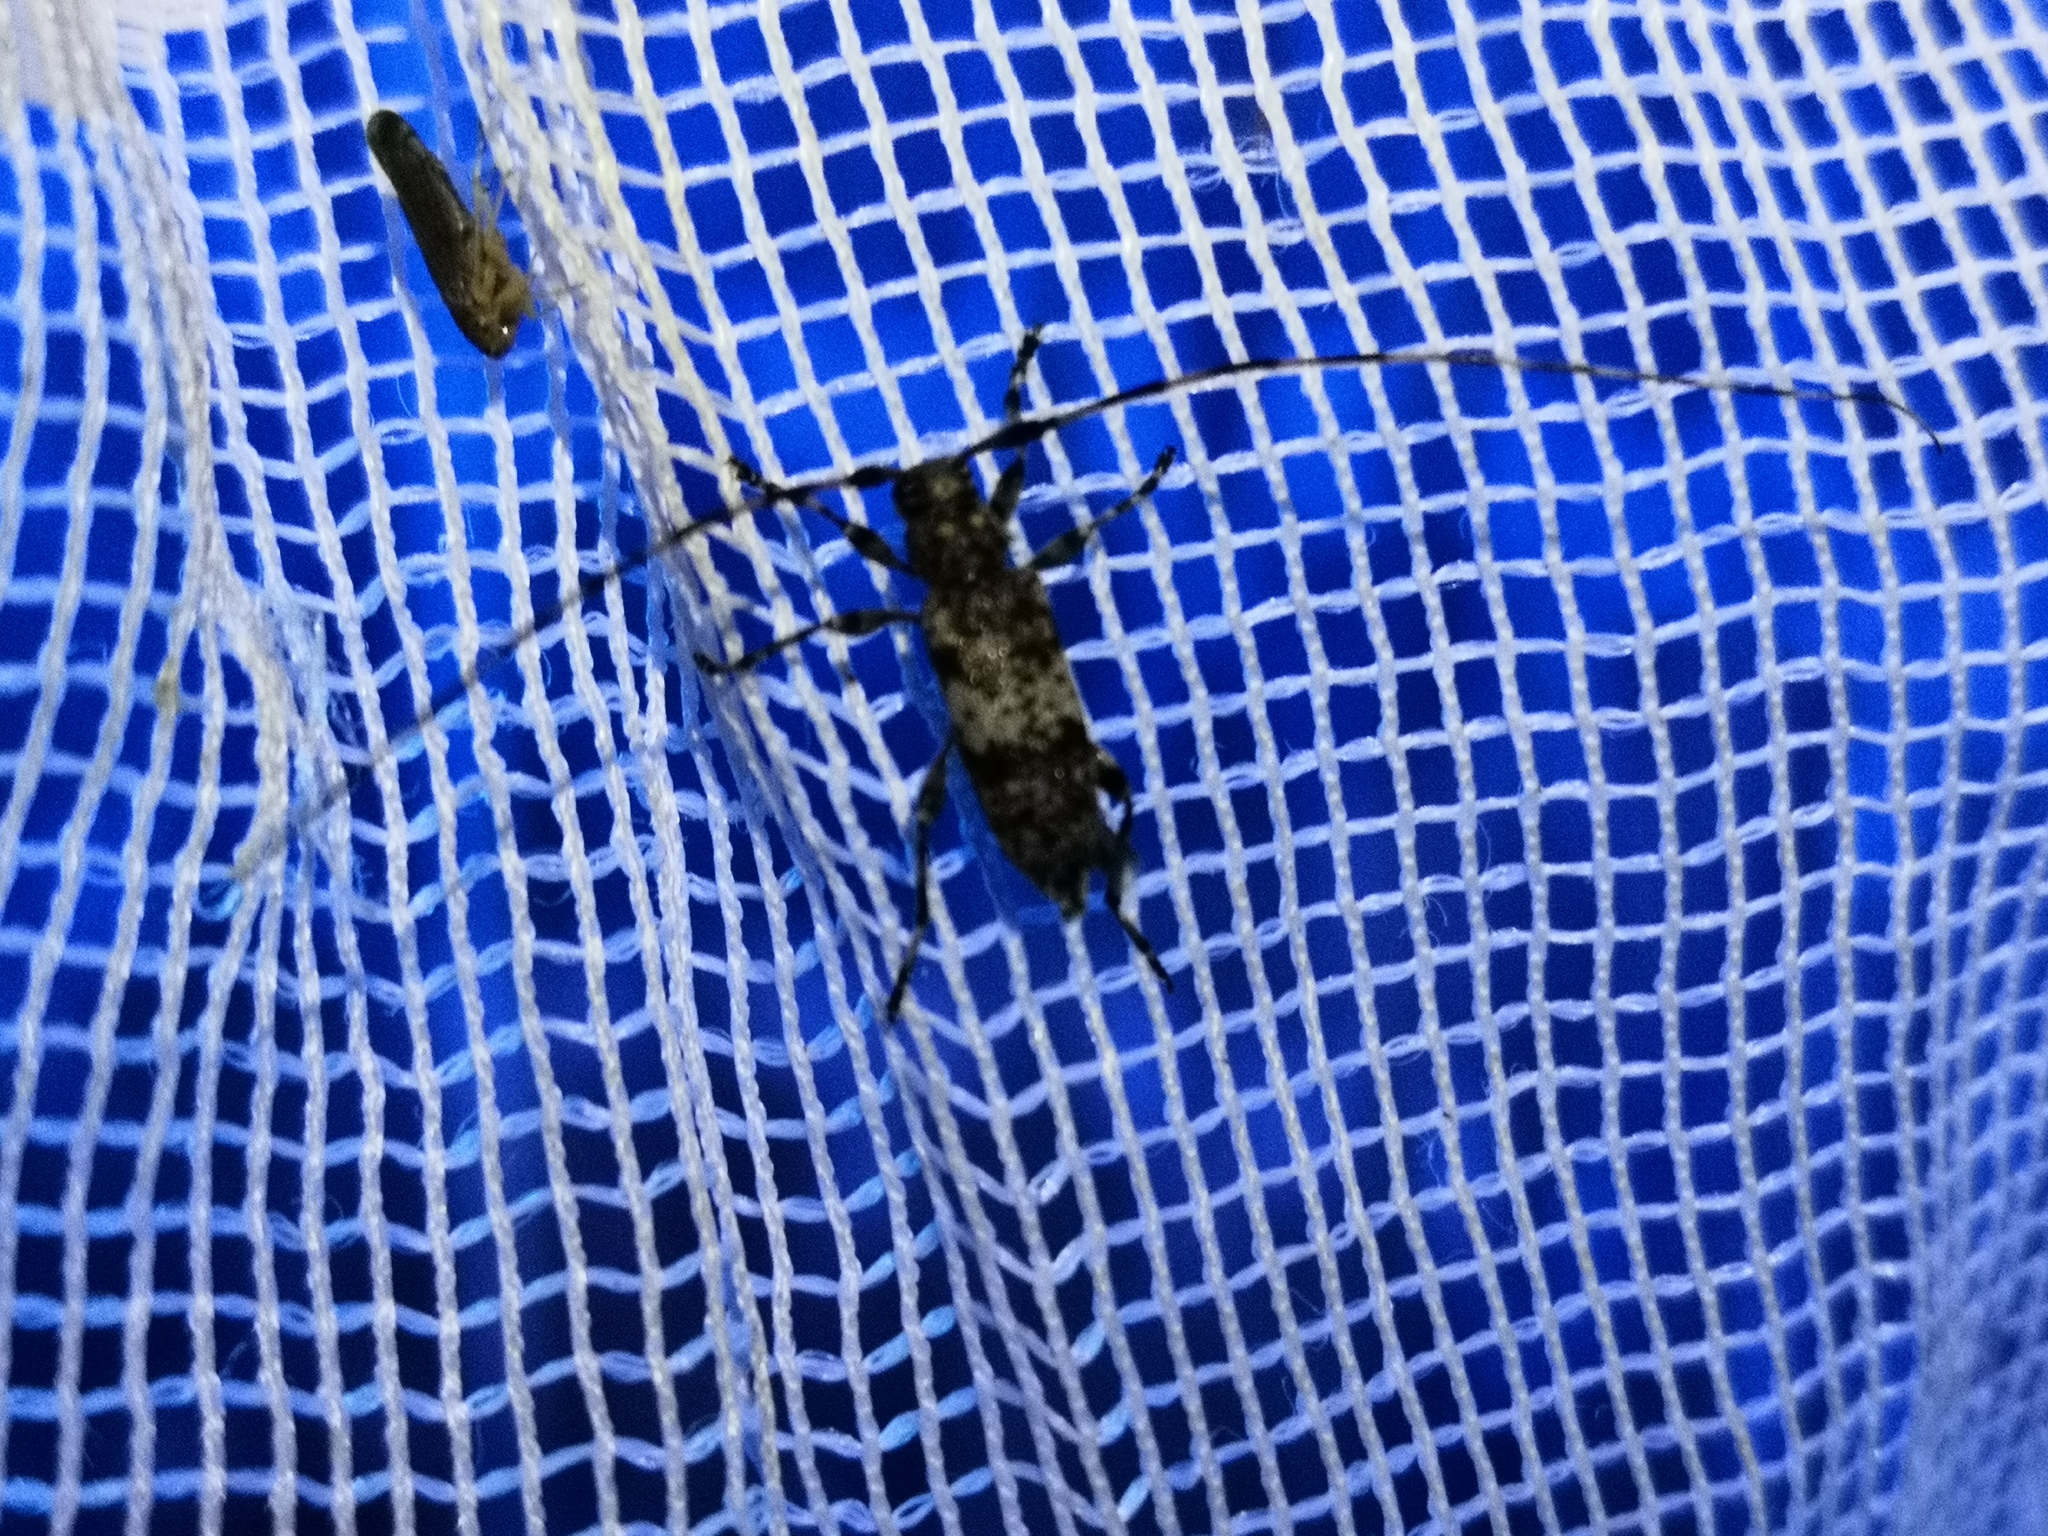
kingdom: Animalia
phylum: Arthropoda
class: Insecta
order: Coleoptera
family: Cerambycidae
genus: Acanthocinus
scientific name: Acanthocinus griseus
